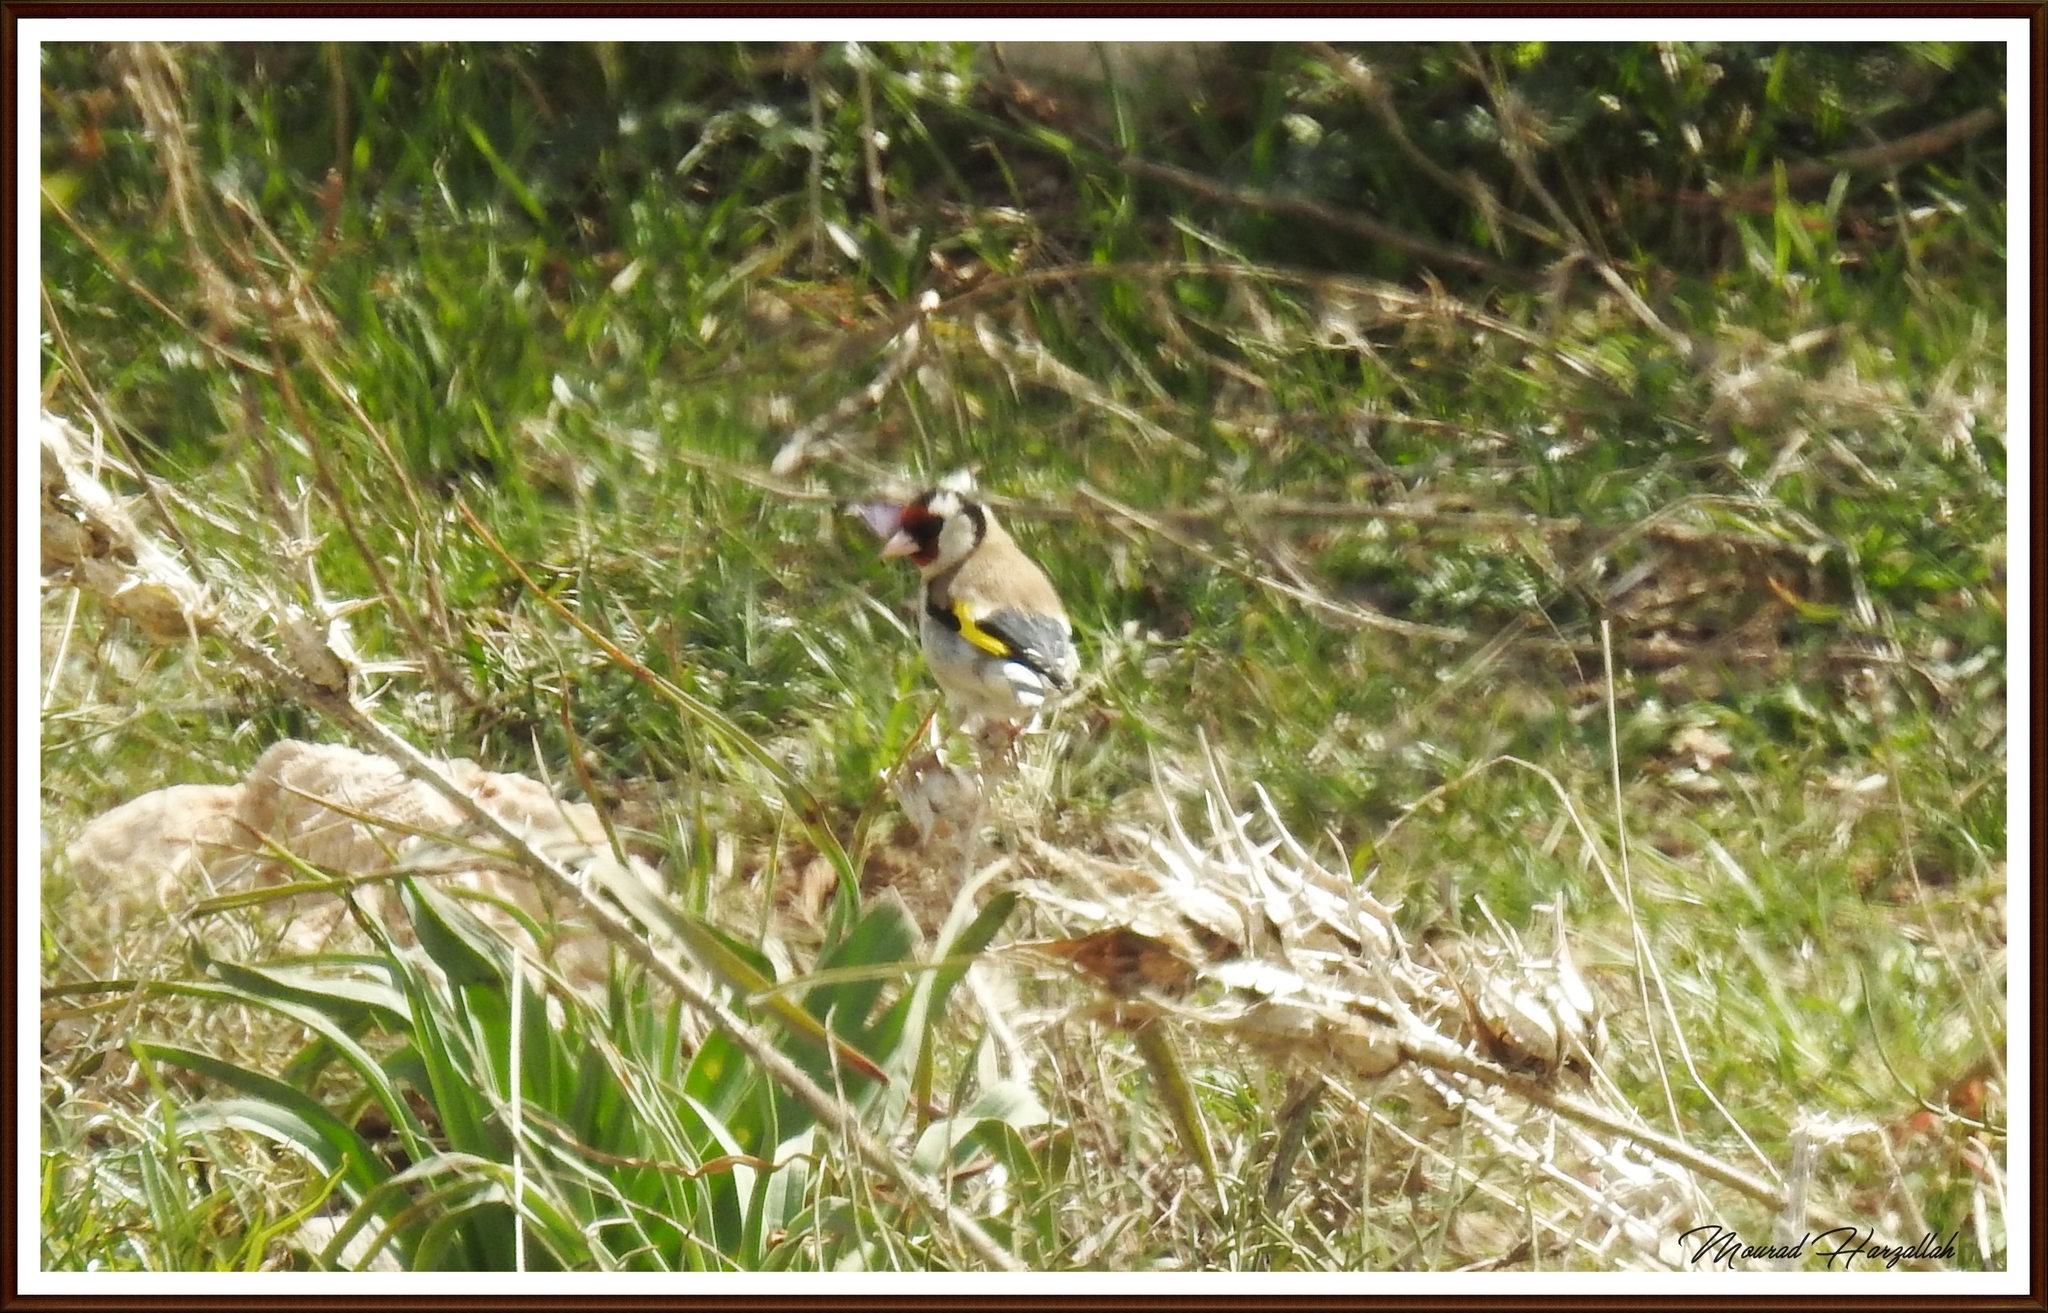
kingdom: Animalia
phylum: Chordata
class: Aves
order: Passeriformes
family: Fringillidae
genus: Carduelis
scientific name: Carduelis carduelis
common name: European goldfinch
